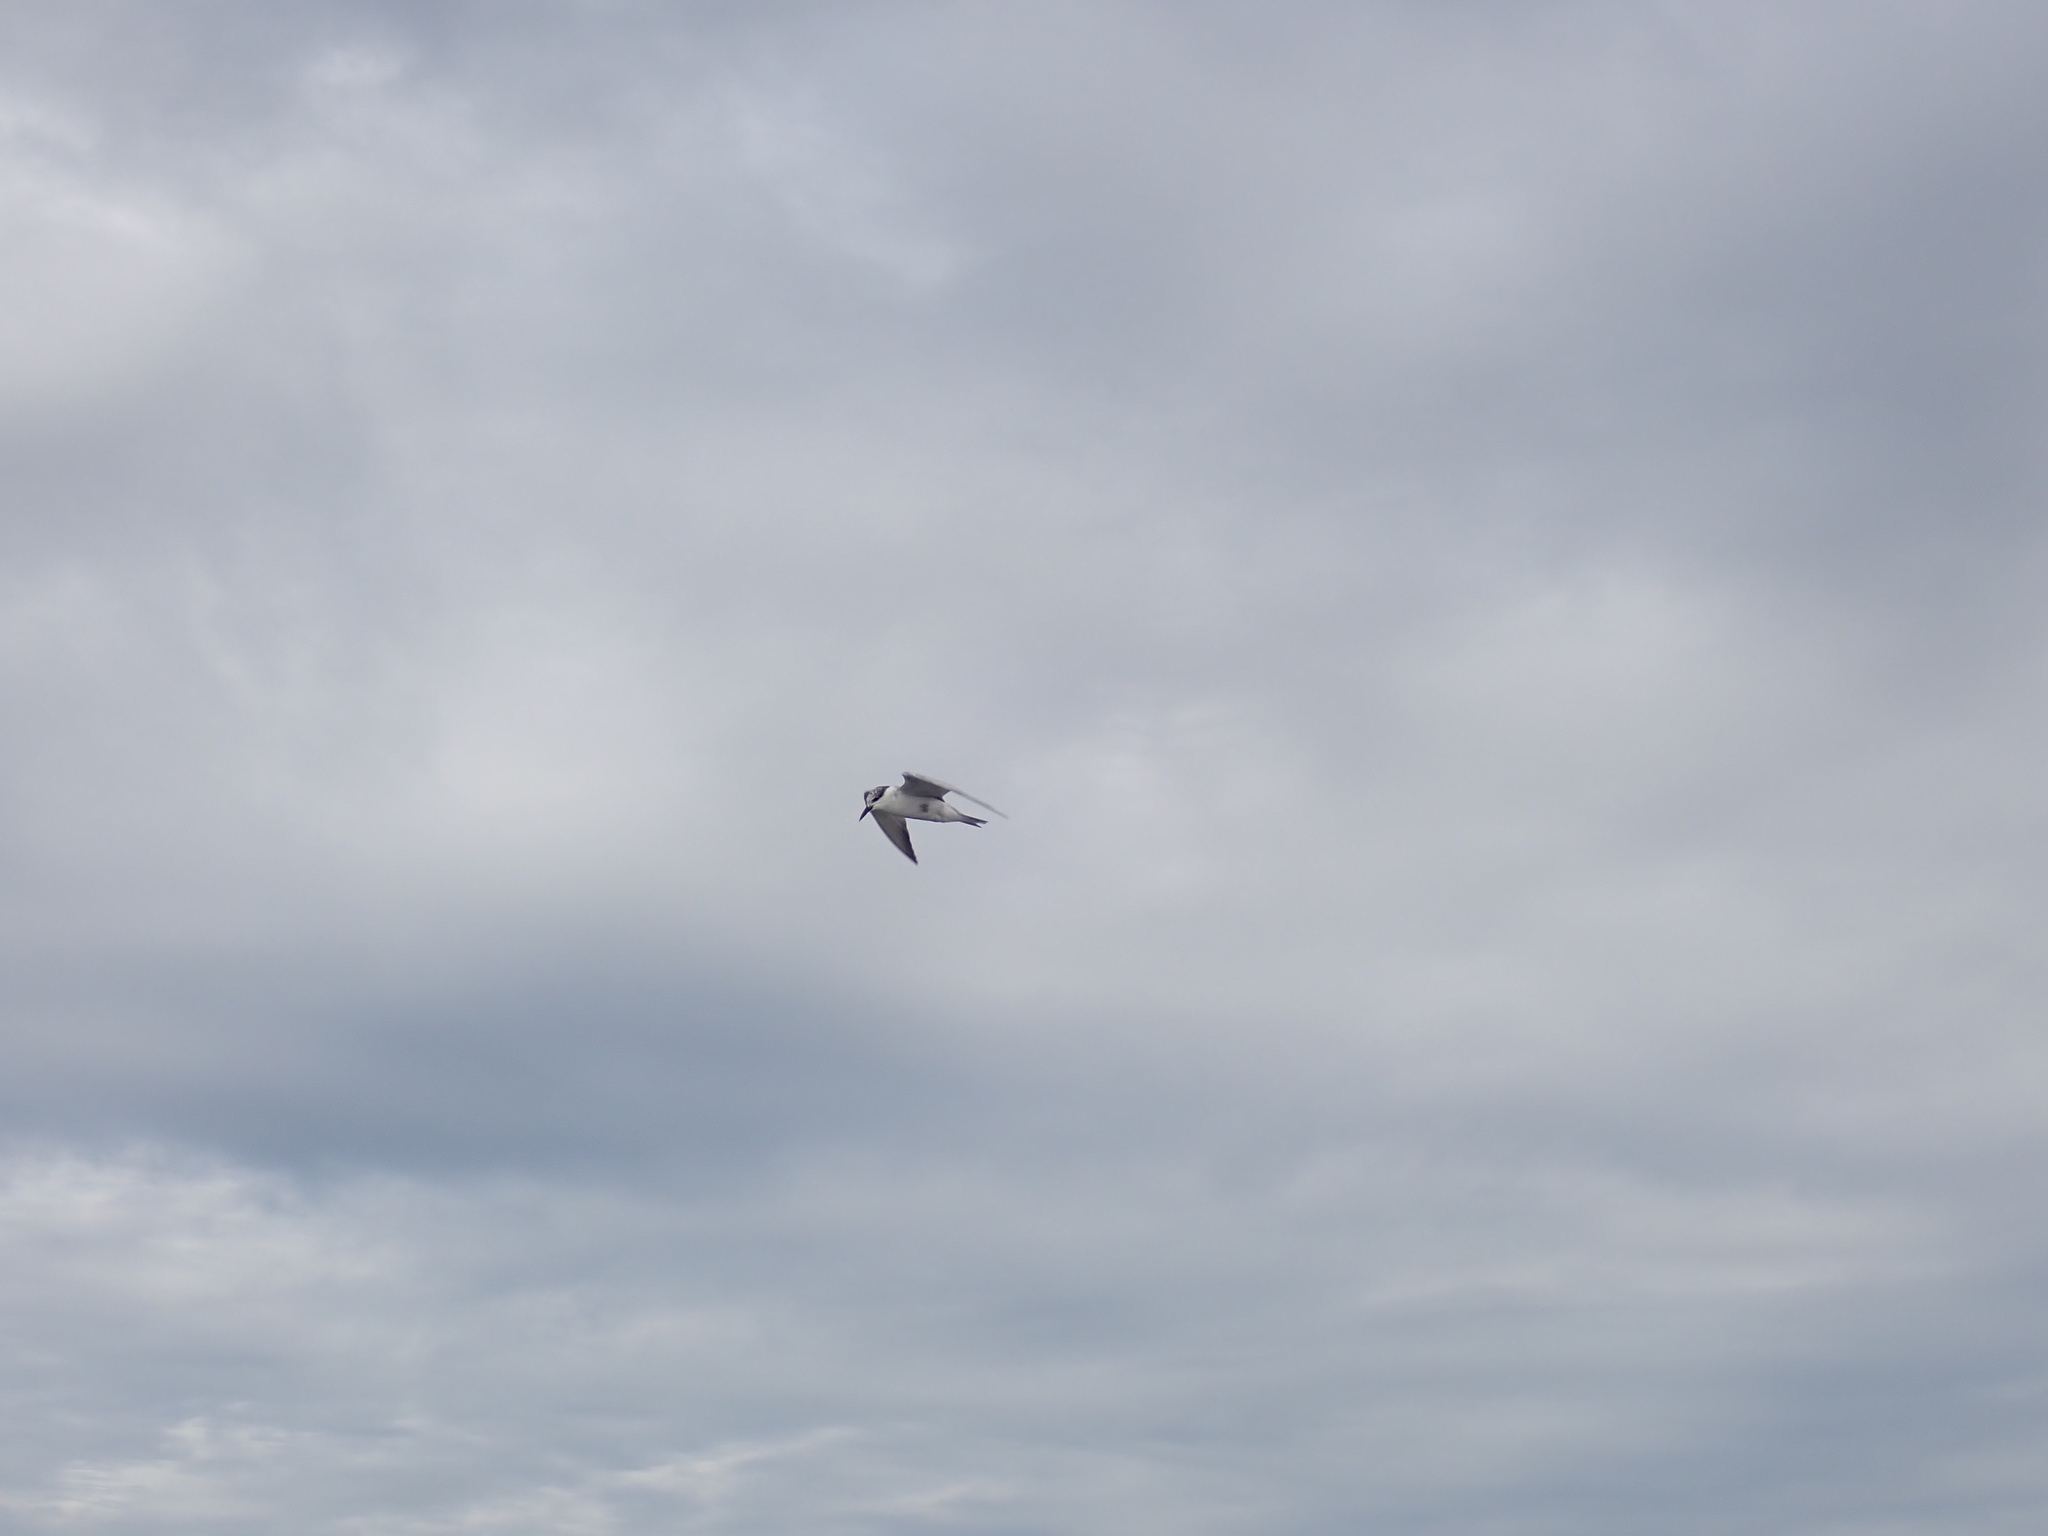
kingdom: Animalia
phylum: Chordata
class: Aves
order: Charadriiformes
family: Laridae
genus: Chlidonias
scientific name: Chlidonias hybrida
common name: Whiskered tern
